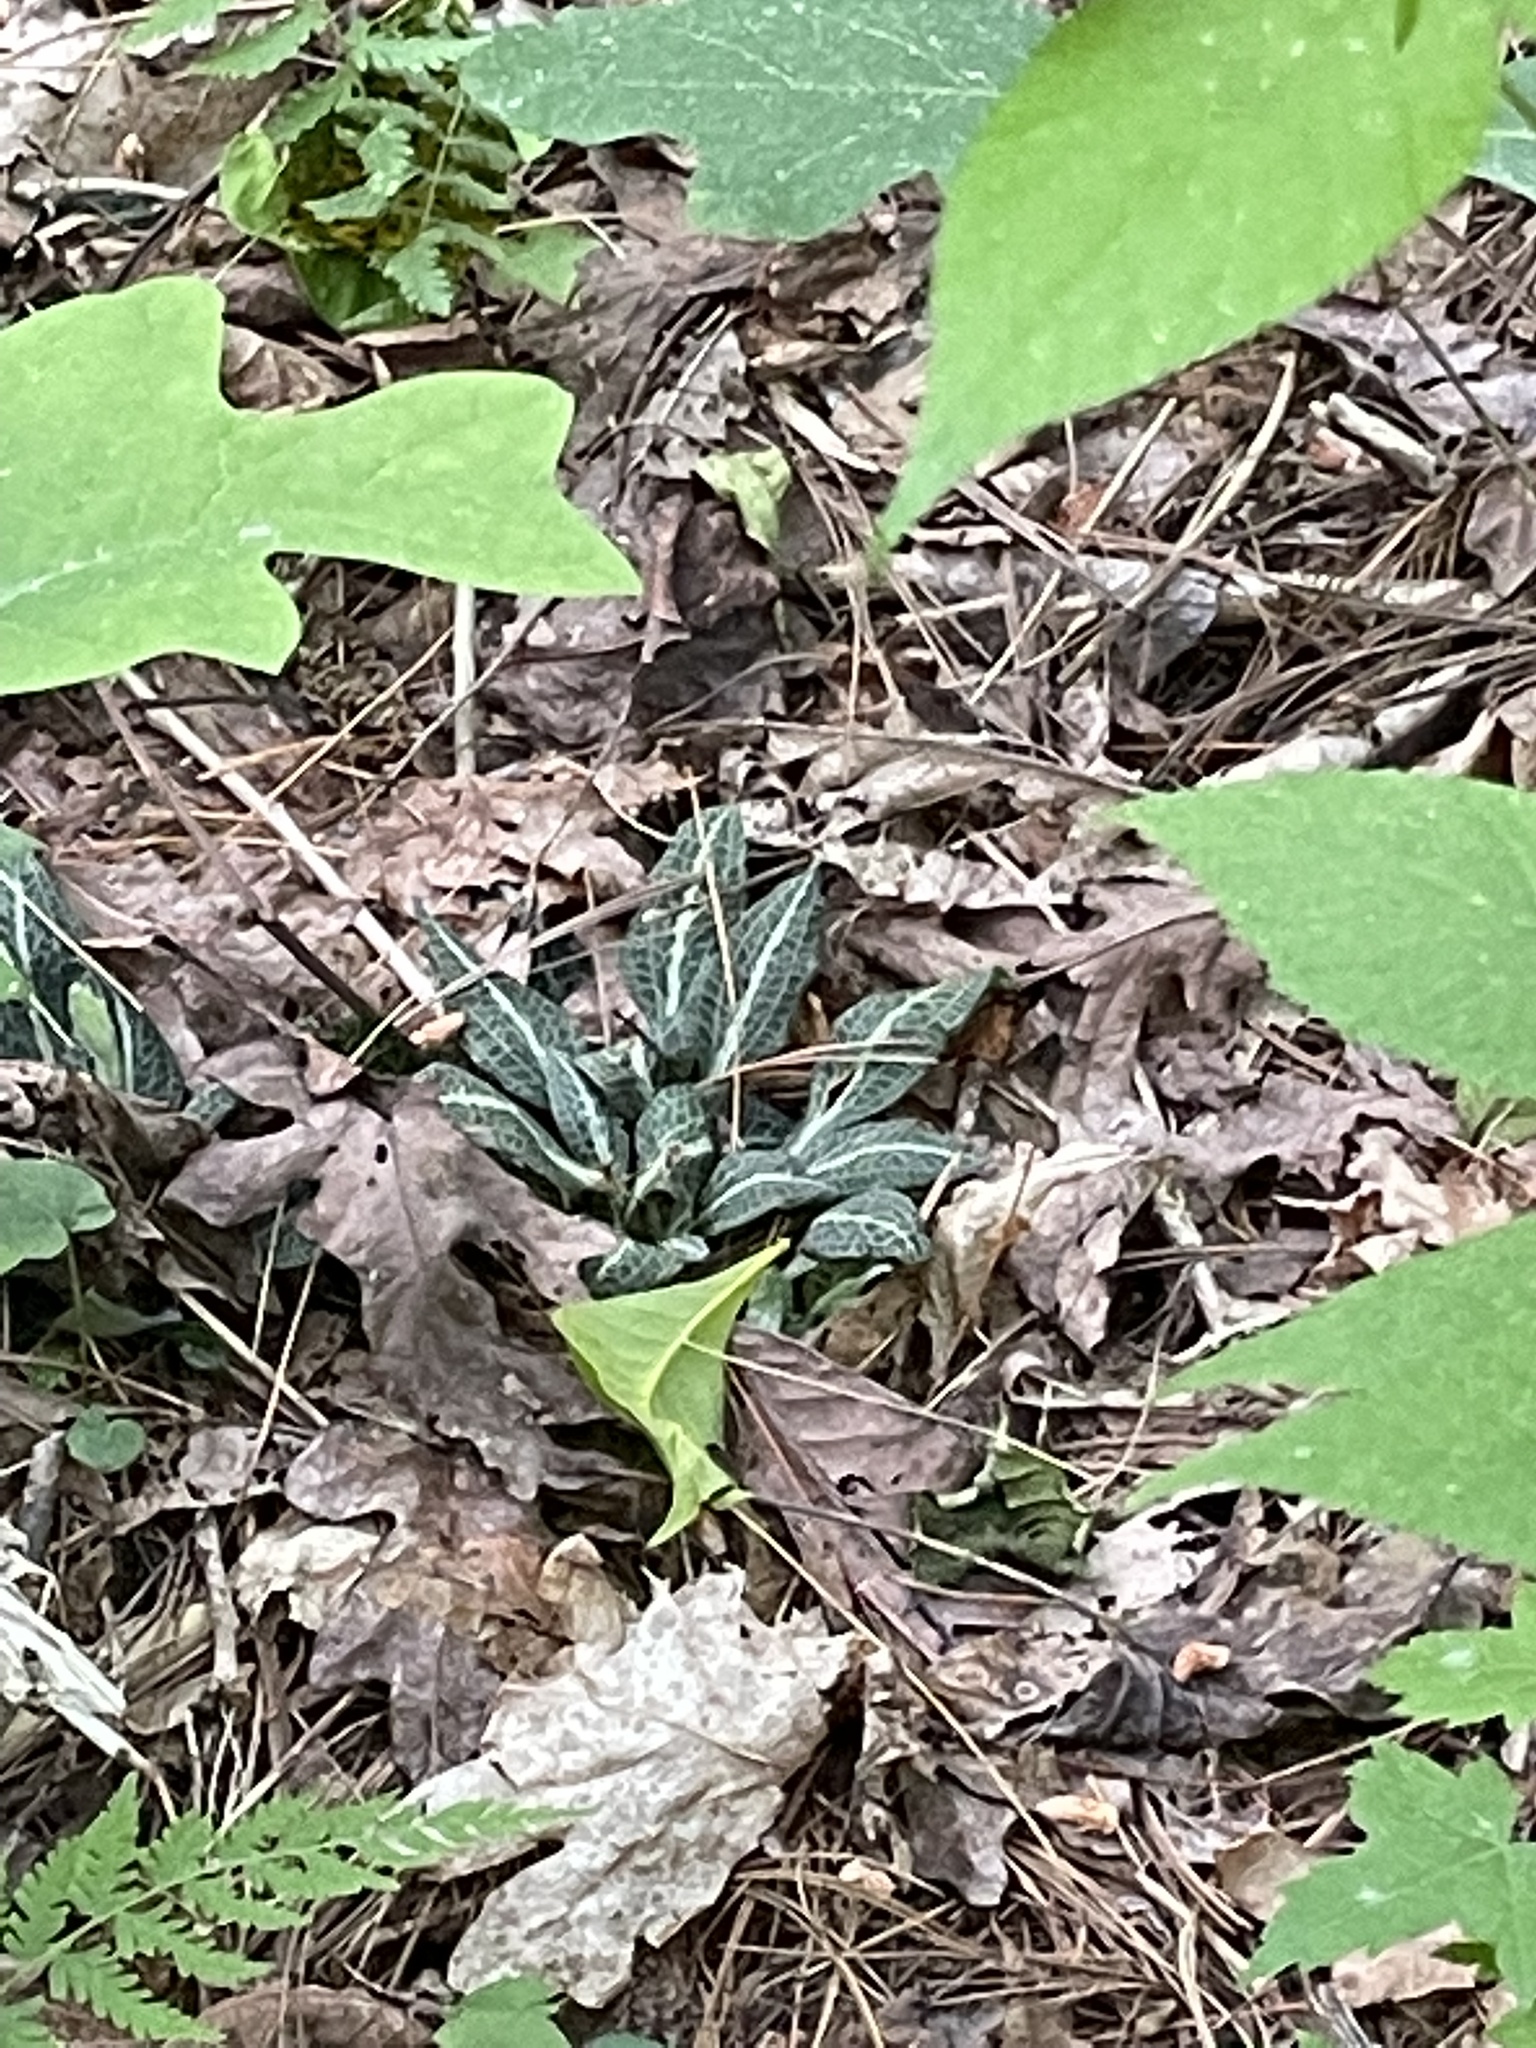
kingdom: Plantae
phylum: Tracheophyta
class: Liliopsida
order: Asparagales
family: Orchidaceae
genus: Goodyera
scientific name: Goodyera pubescens
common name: Downy rattlesnake-plantain
